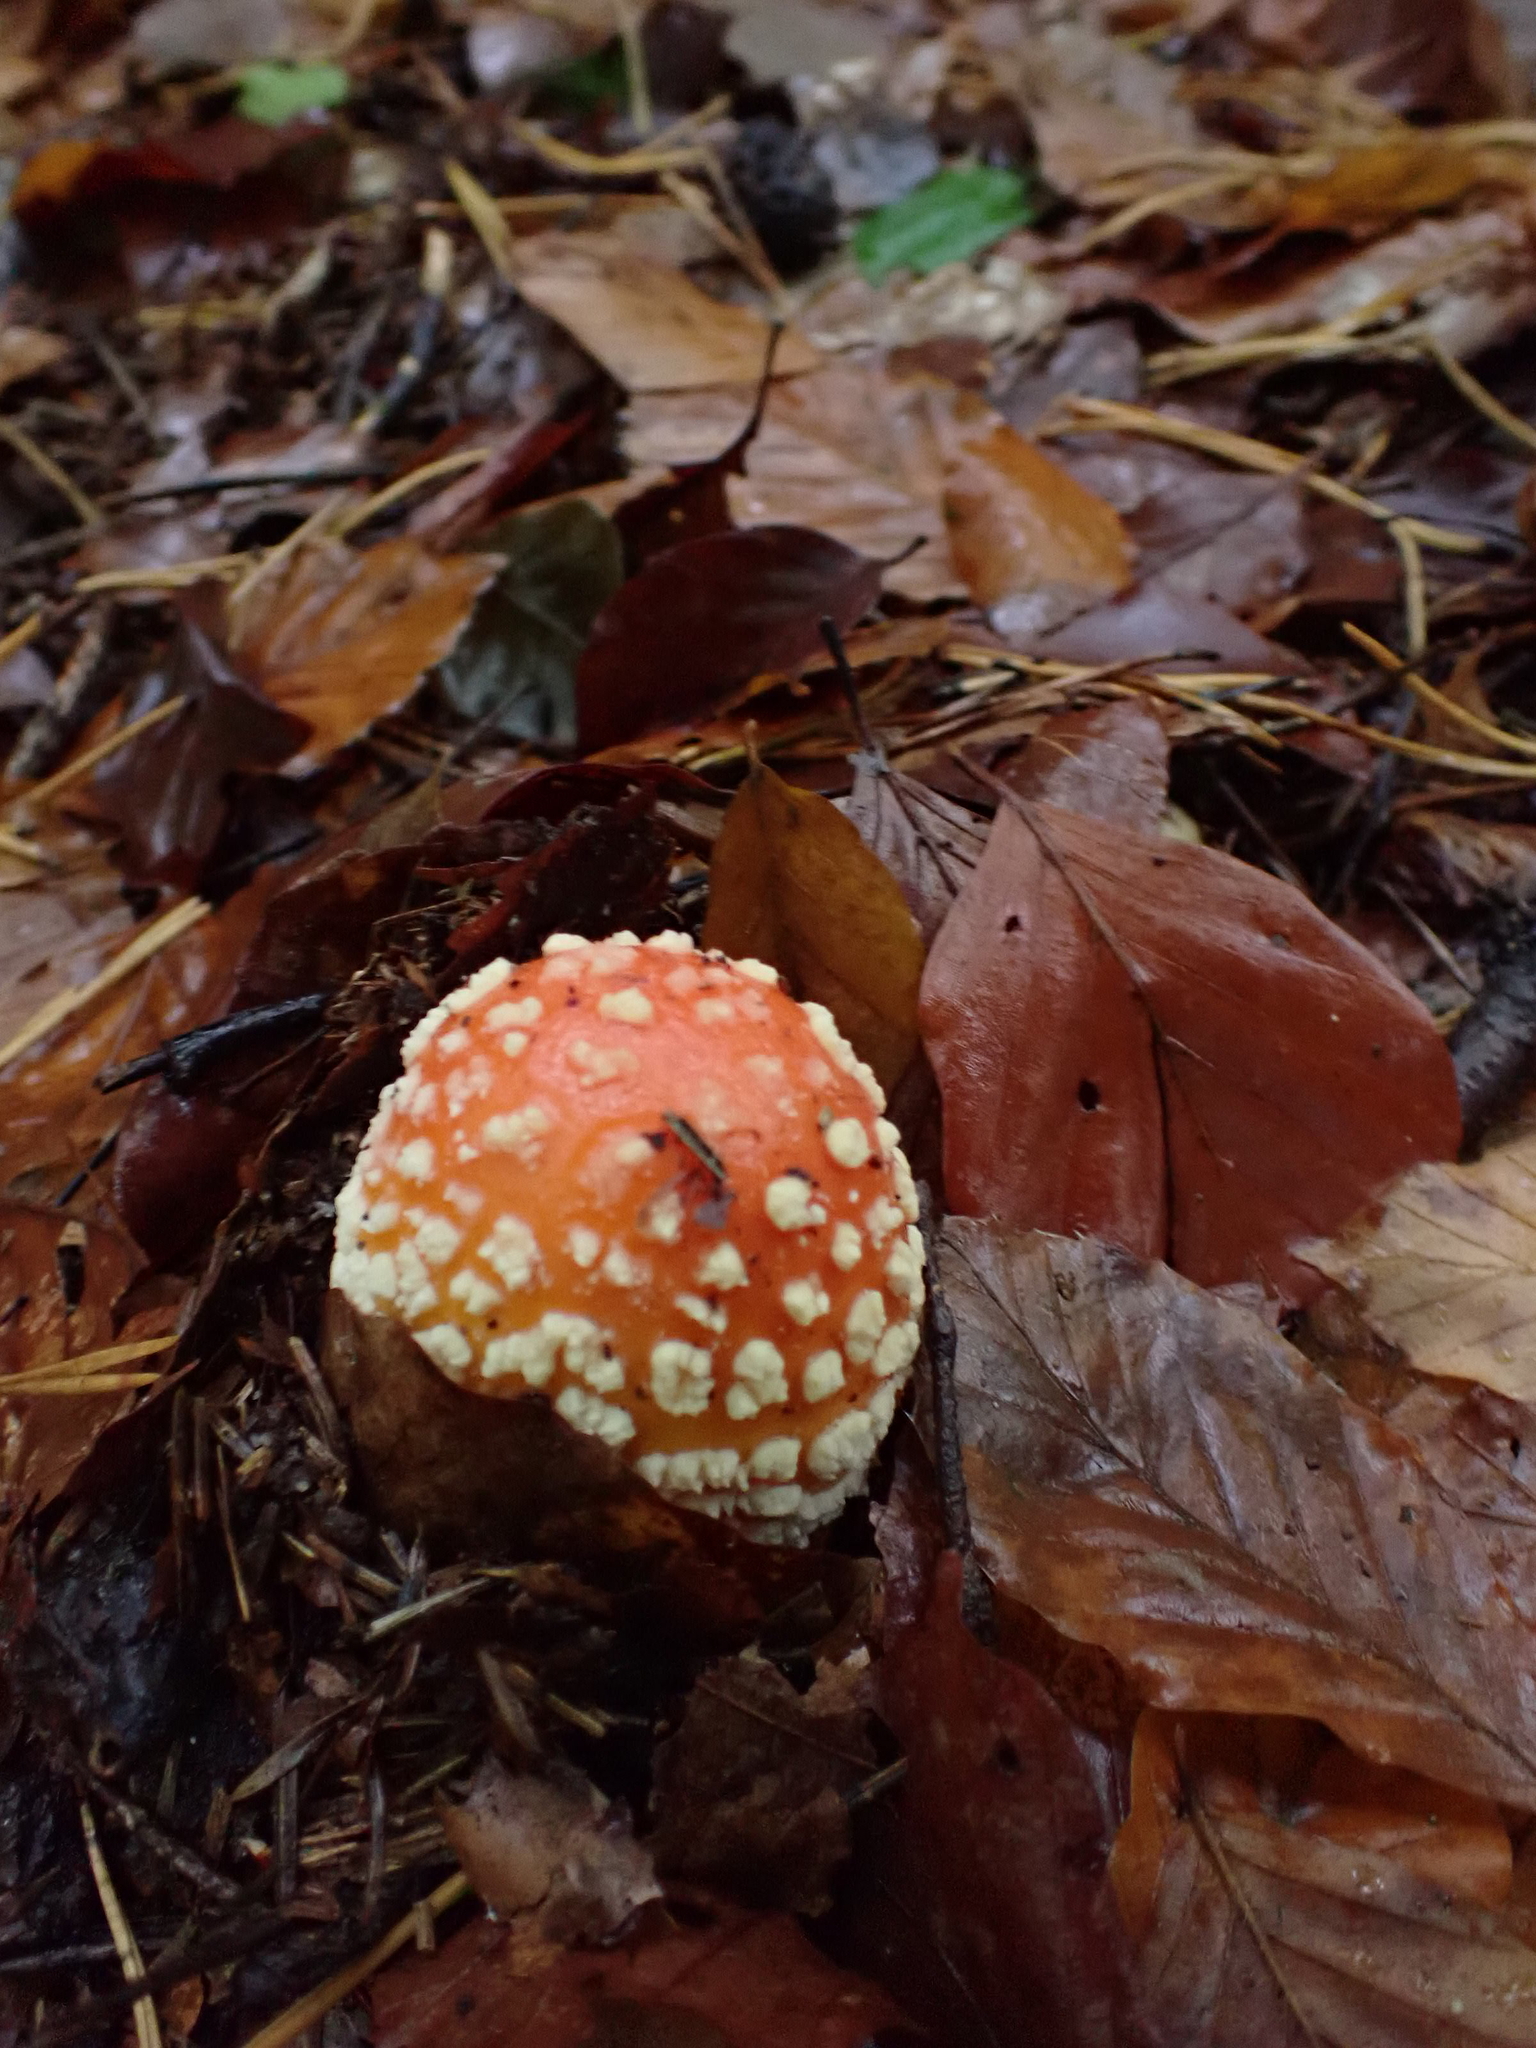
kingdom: Fungi
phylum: Basidiomycota
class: Agaricomycetes
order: Agaricales
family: Amanitaceae
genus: Amanita
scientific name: Amanita muscaria
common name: Fly agaric
